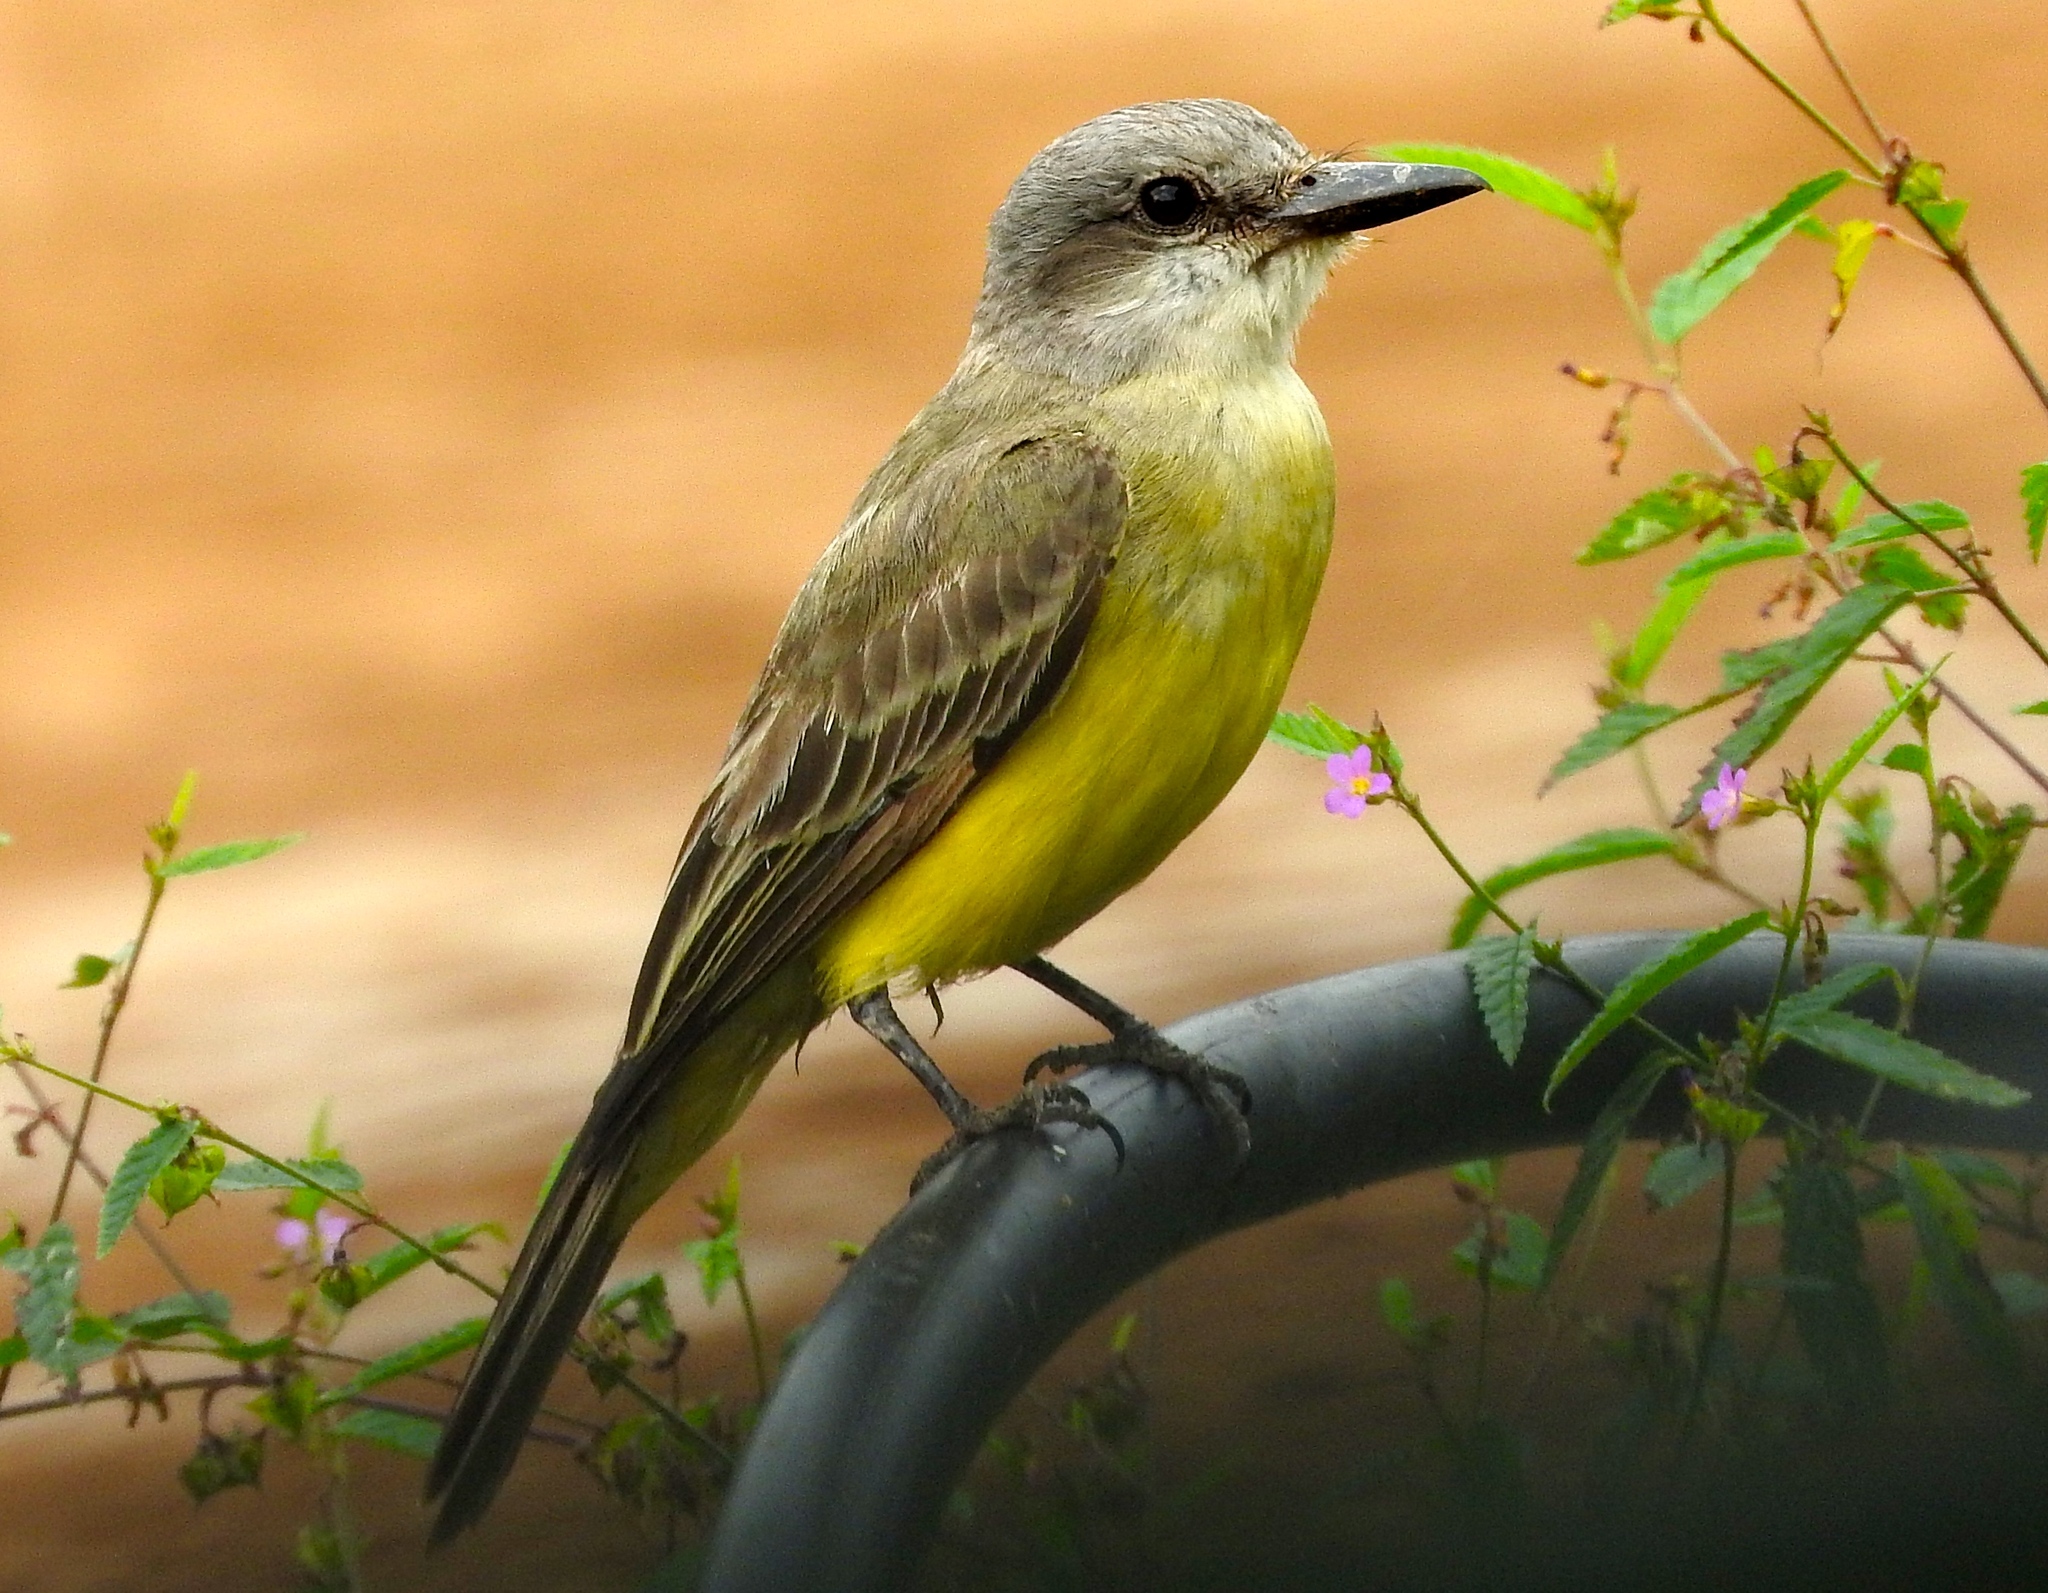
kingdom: Animalia
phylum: Chordata
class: Aves
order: Passeriformes
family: Tyrannidae
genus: Tyrannus
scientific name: Tyrannus melancholicus
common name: Tropical kingbird
